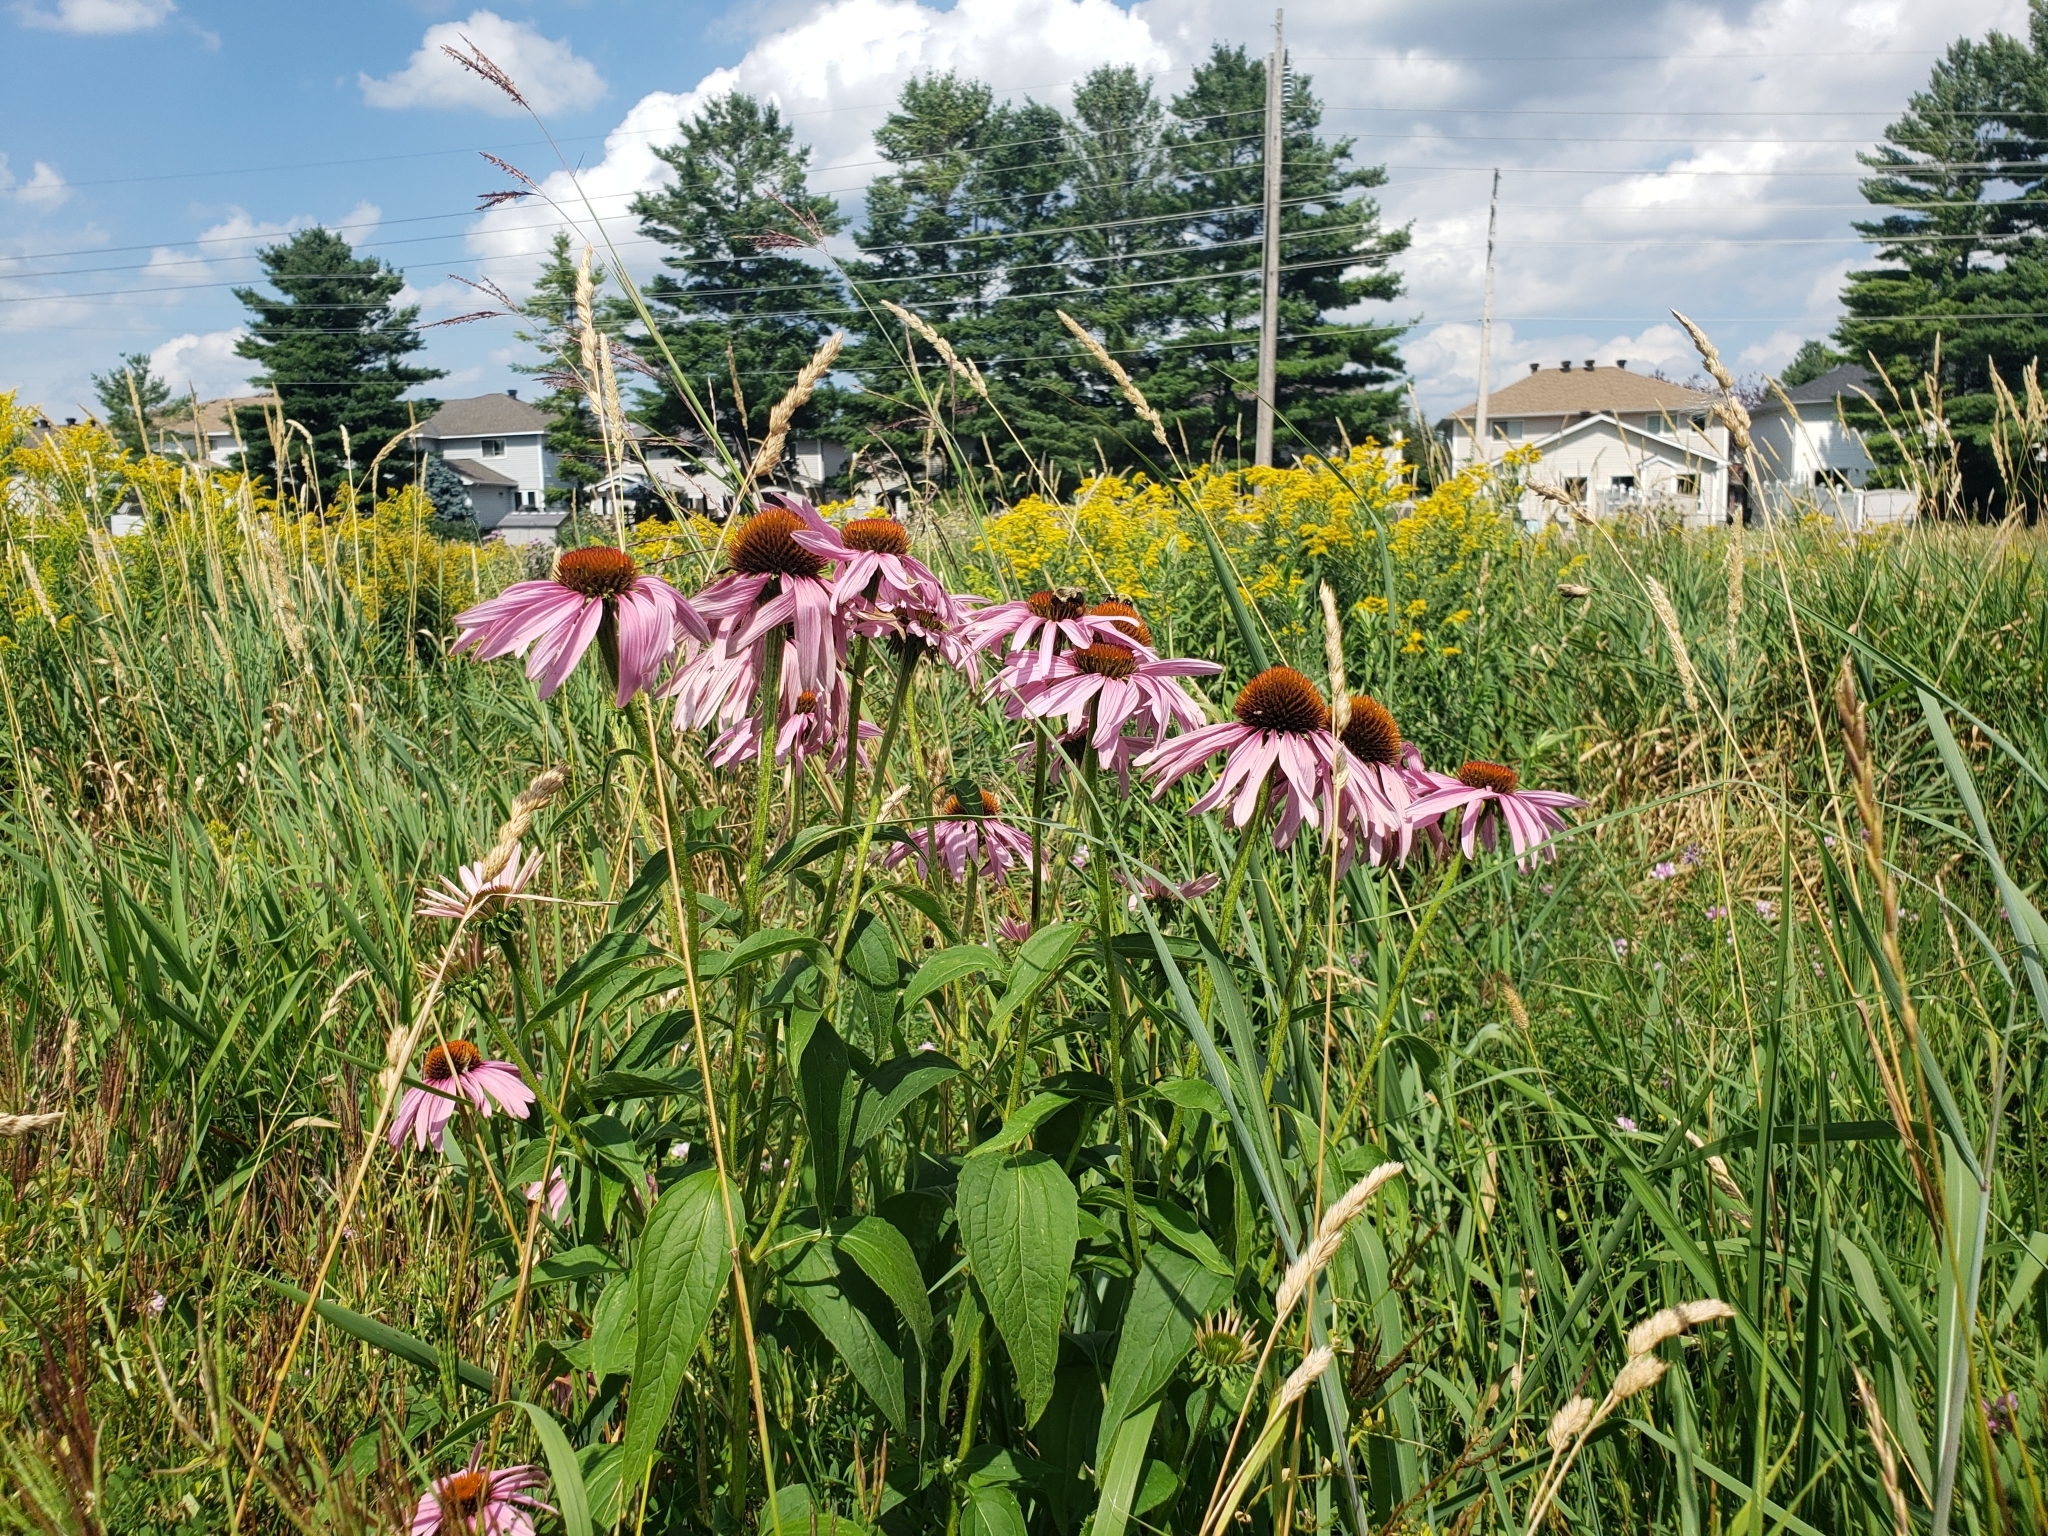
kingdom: Plantae
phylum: Tracheophyta
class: Magnoliopsida
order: Asterales
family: Asteraceae
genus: Echinacea
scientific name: Echinacea purpurea
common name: Broad-leaved purple coneflower
